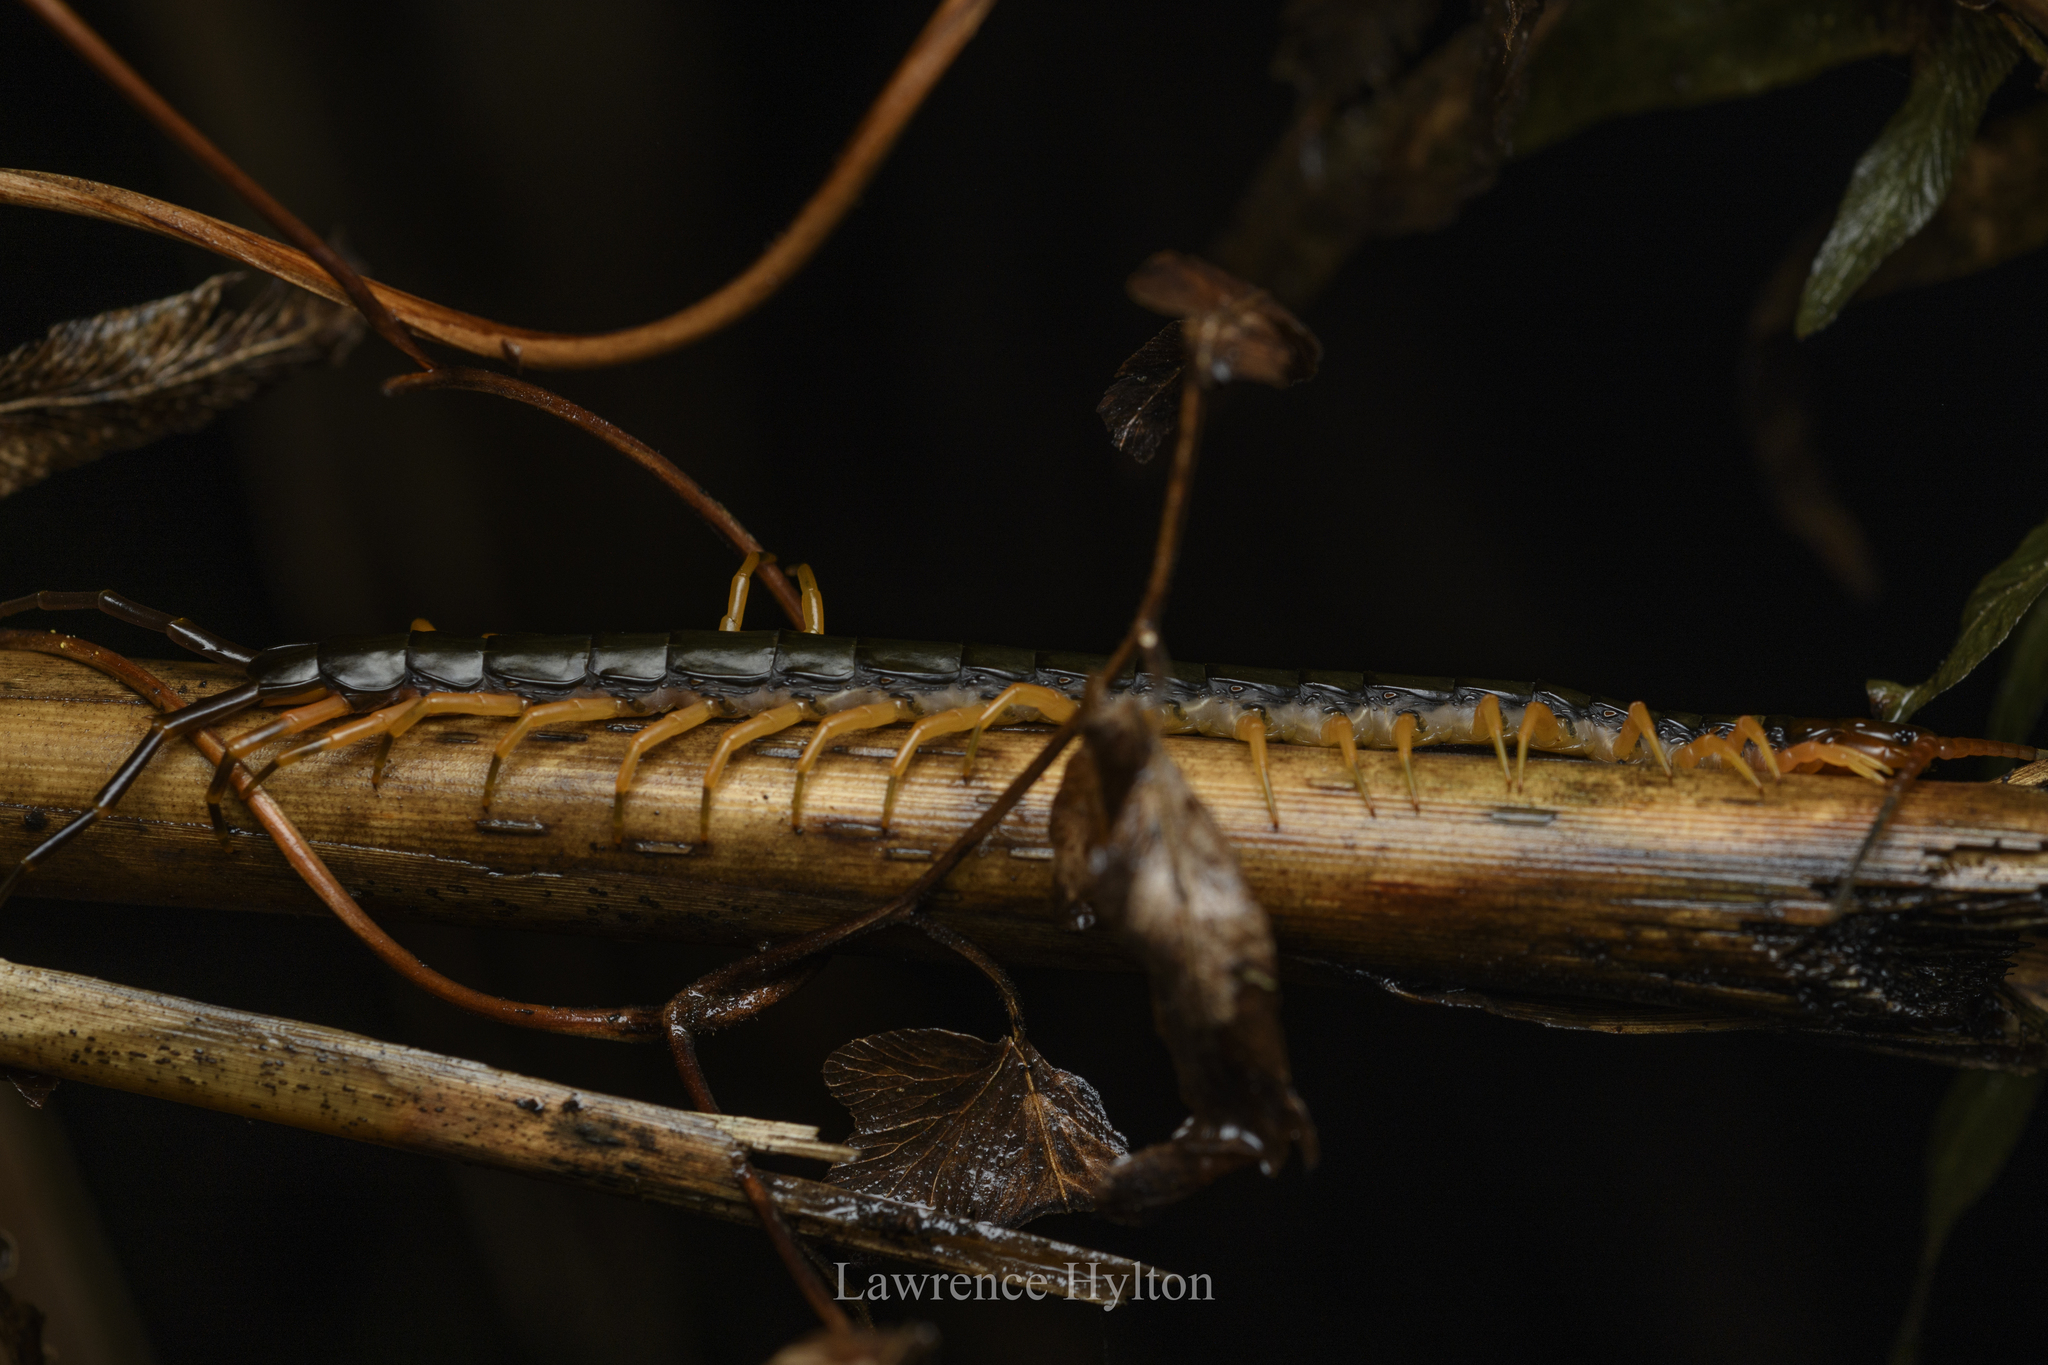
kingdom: Animalia
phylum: Arthropoda
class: Chilopoda
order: Scolopendromorpha
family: Scolopendridae
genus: Scolopendra
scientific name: Scolopendra hainana
